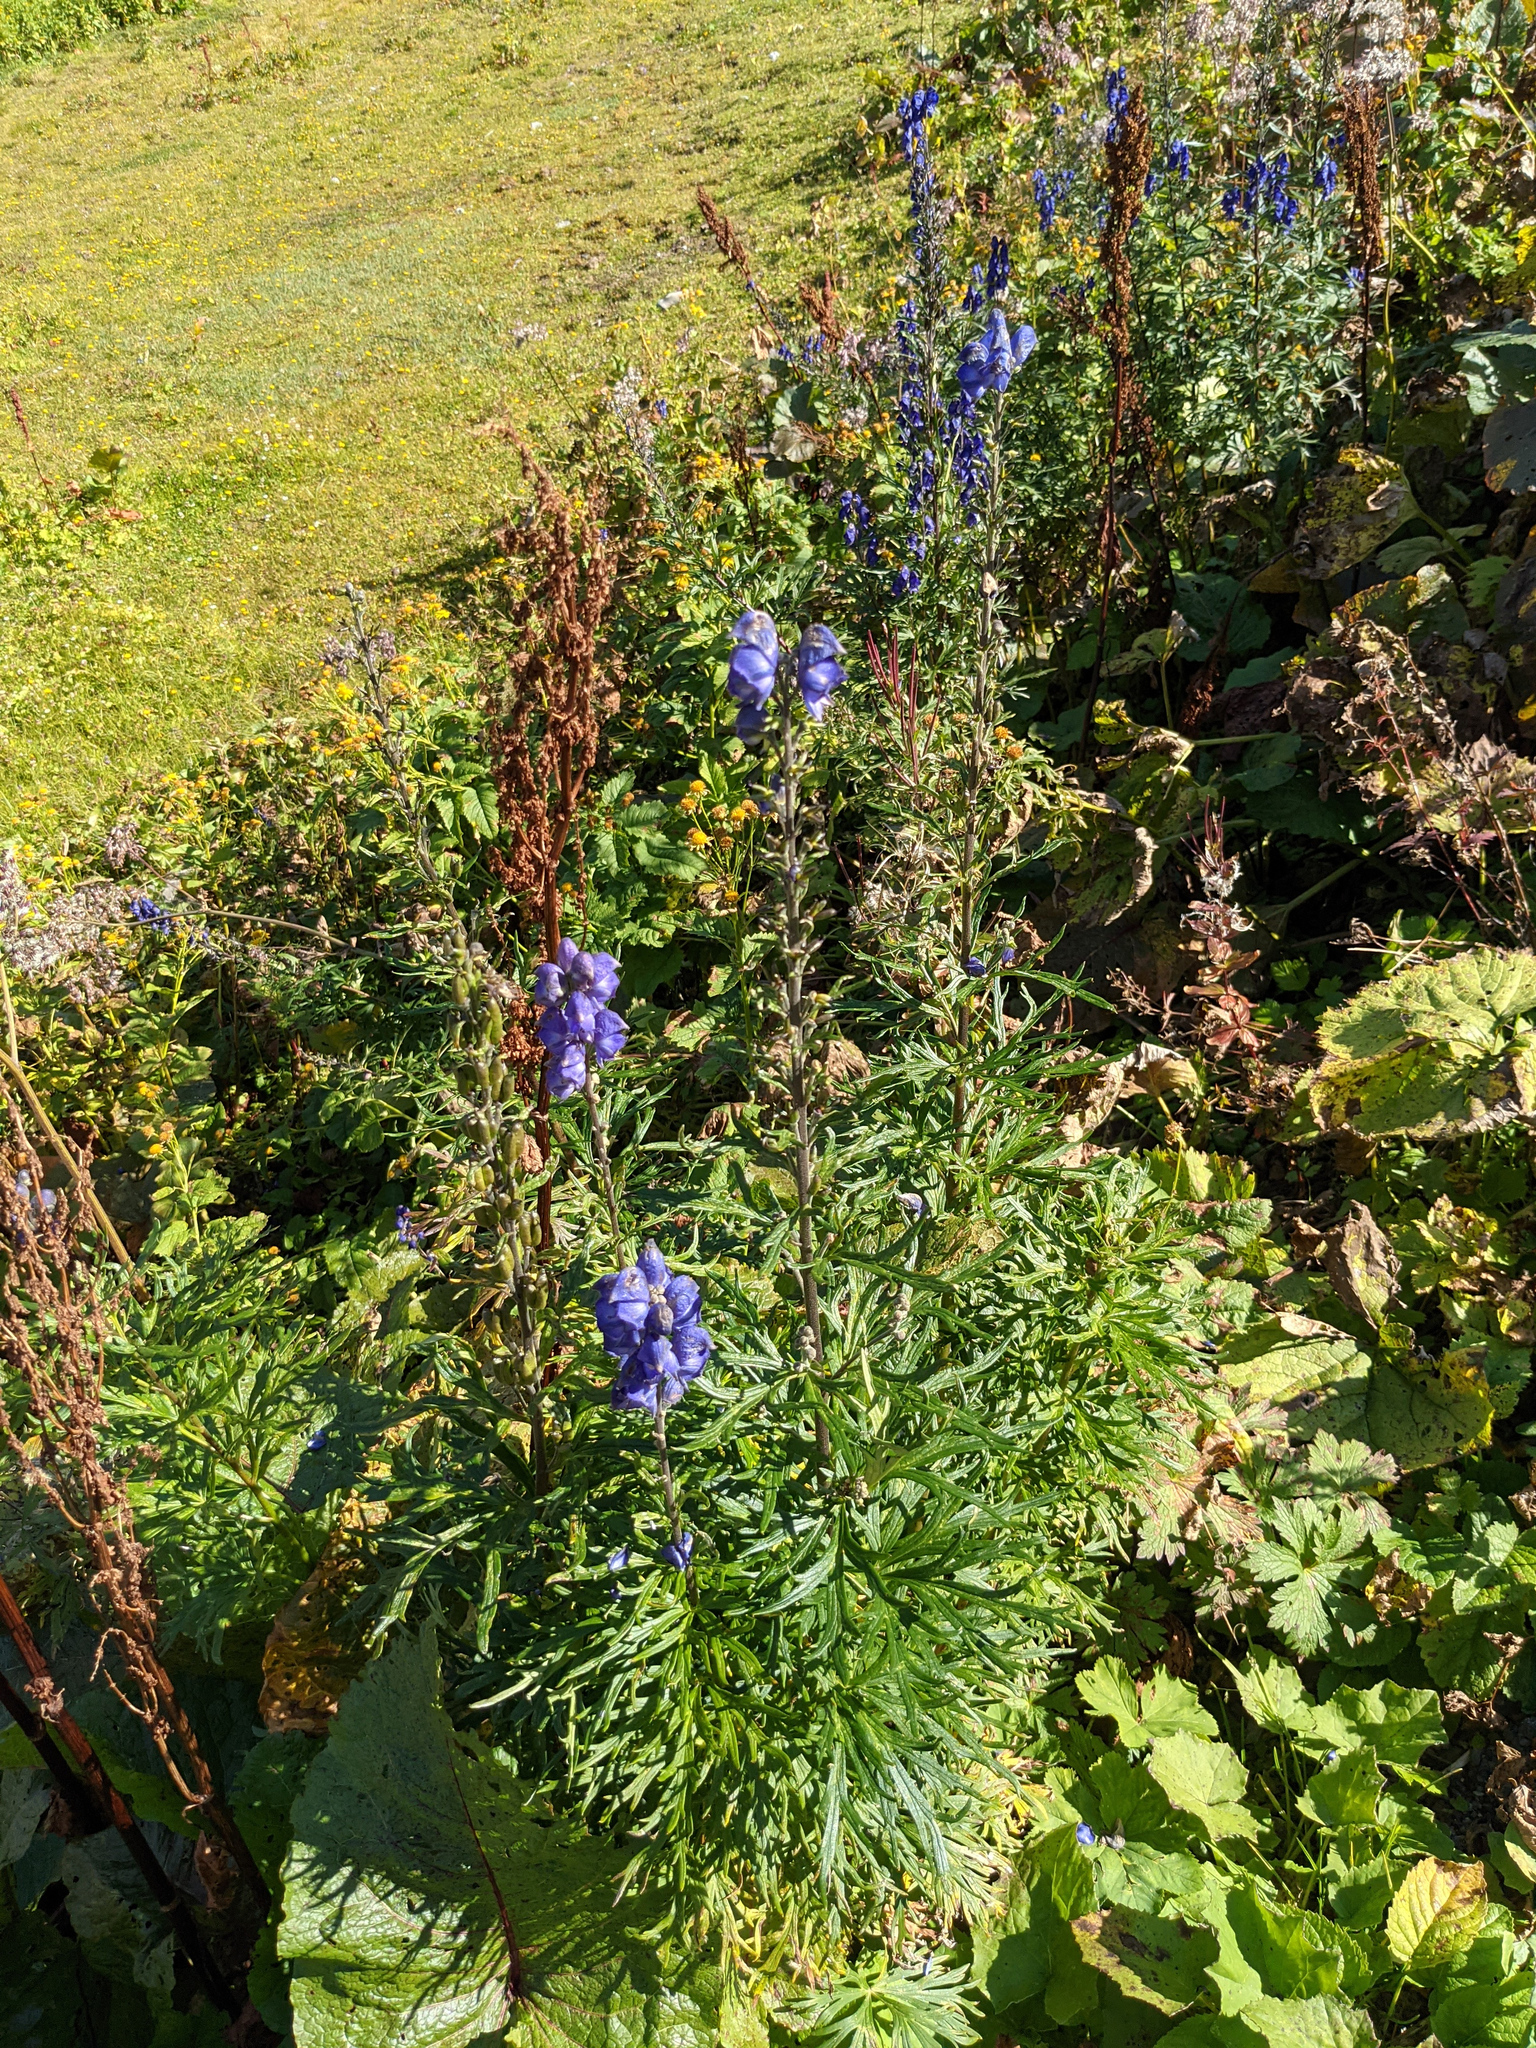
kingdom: Plantae
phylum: Tracheophyta
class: Magnoliopsida
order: Ranunculales
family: Ranunculaceae
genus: Aconitum
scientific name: Aconitum napellus
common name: Garden monkshood
